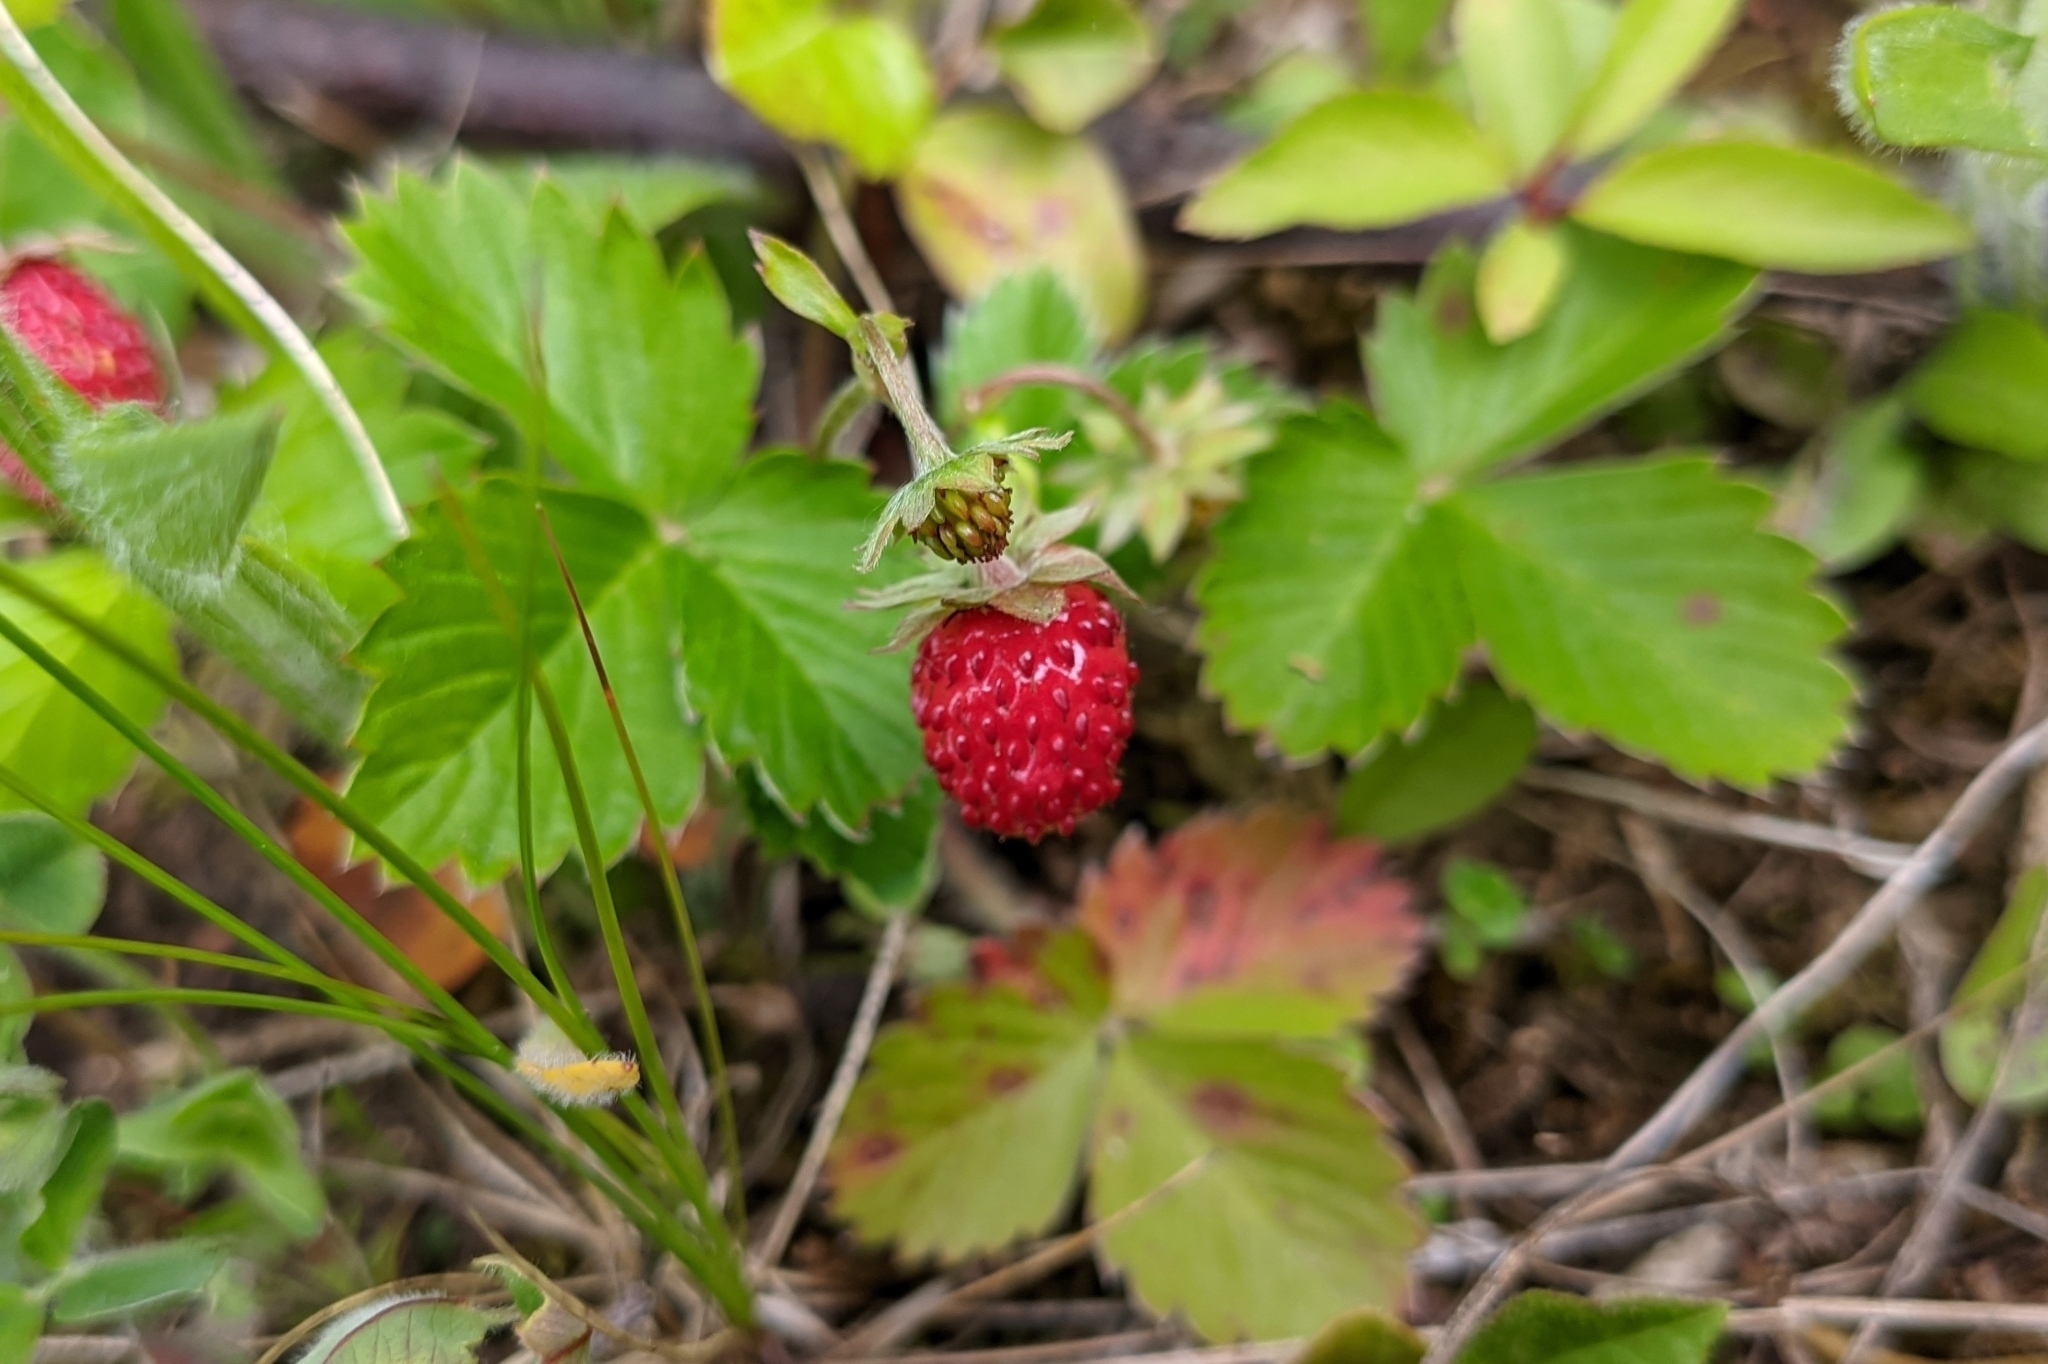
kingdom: Plantae
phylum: Tracheophyta
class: Magnoliopsida
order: Rosales
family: Rosaceae
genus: Fragaria
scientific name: Fragaria vesca
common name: Wild strawberry
